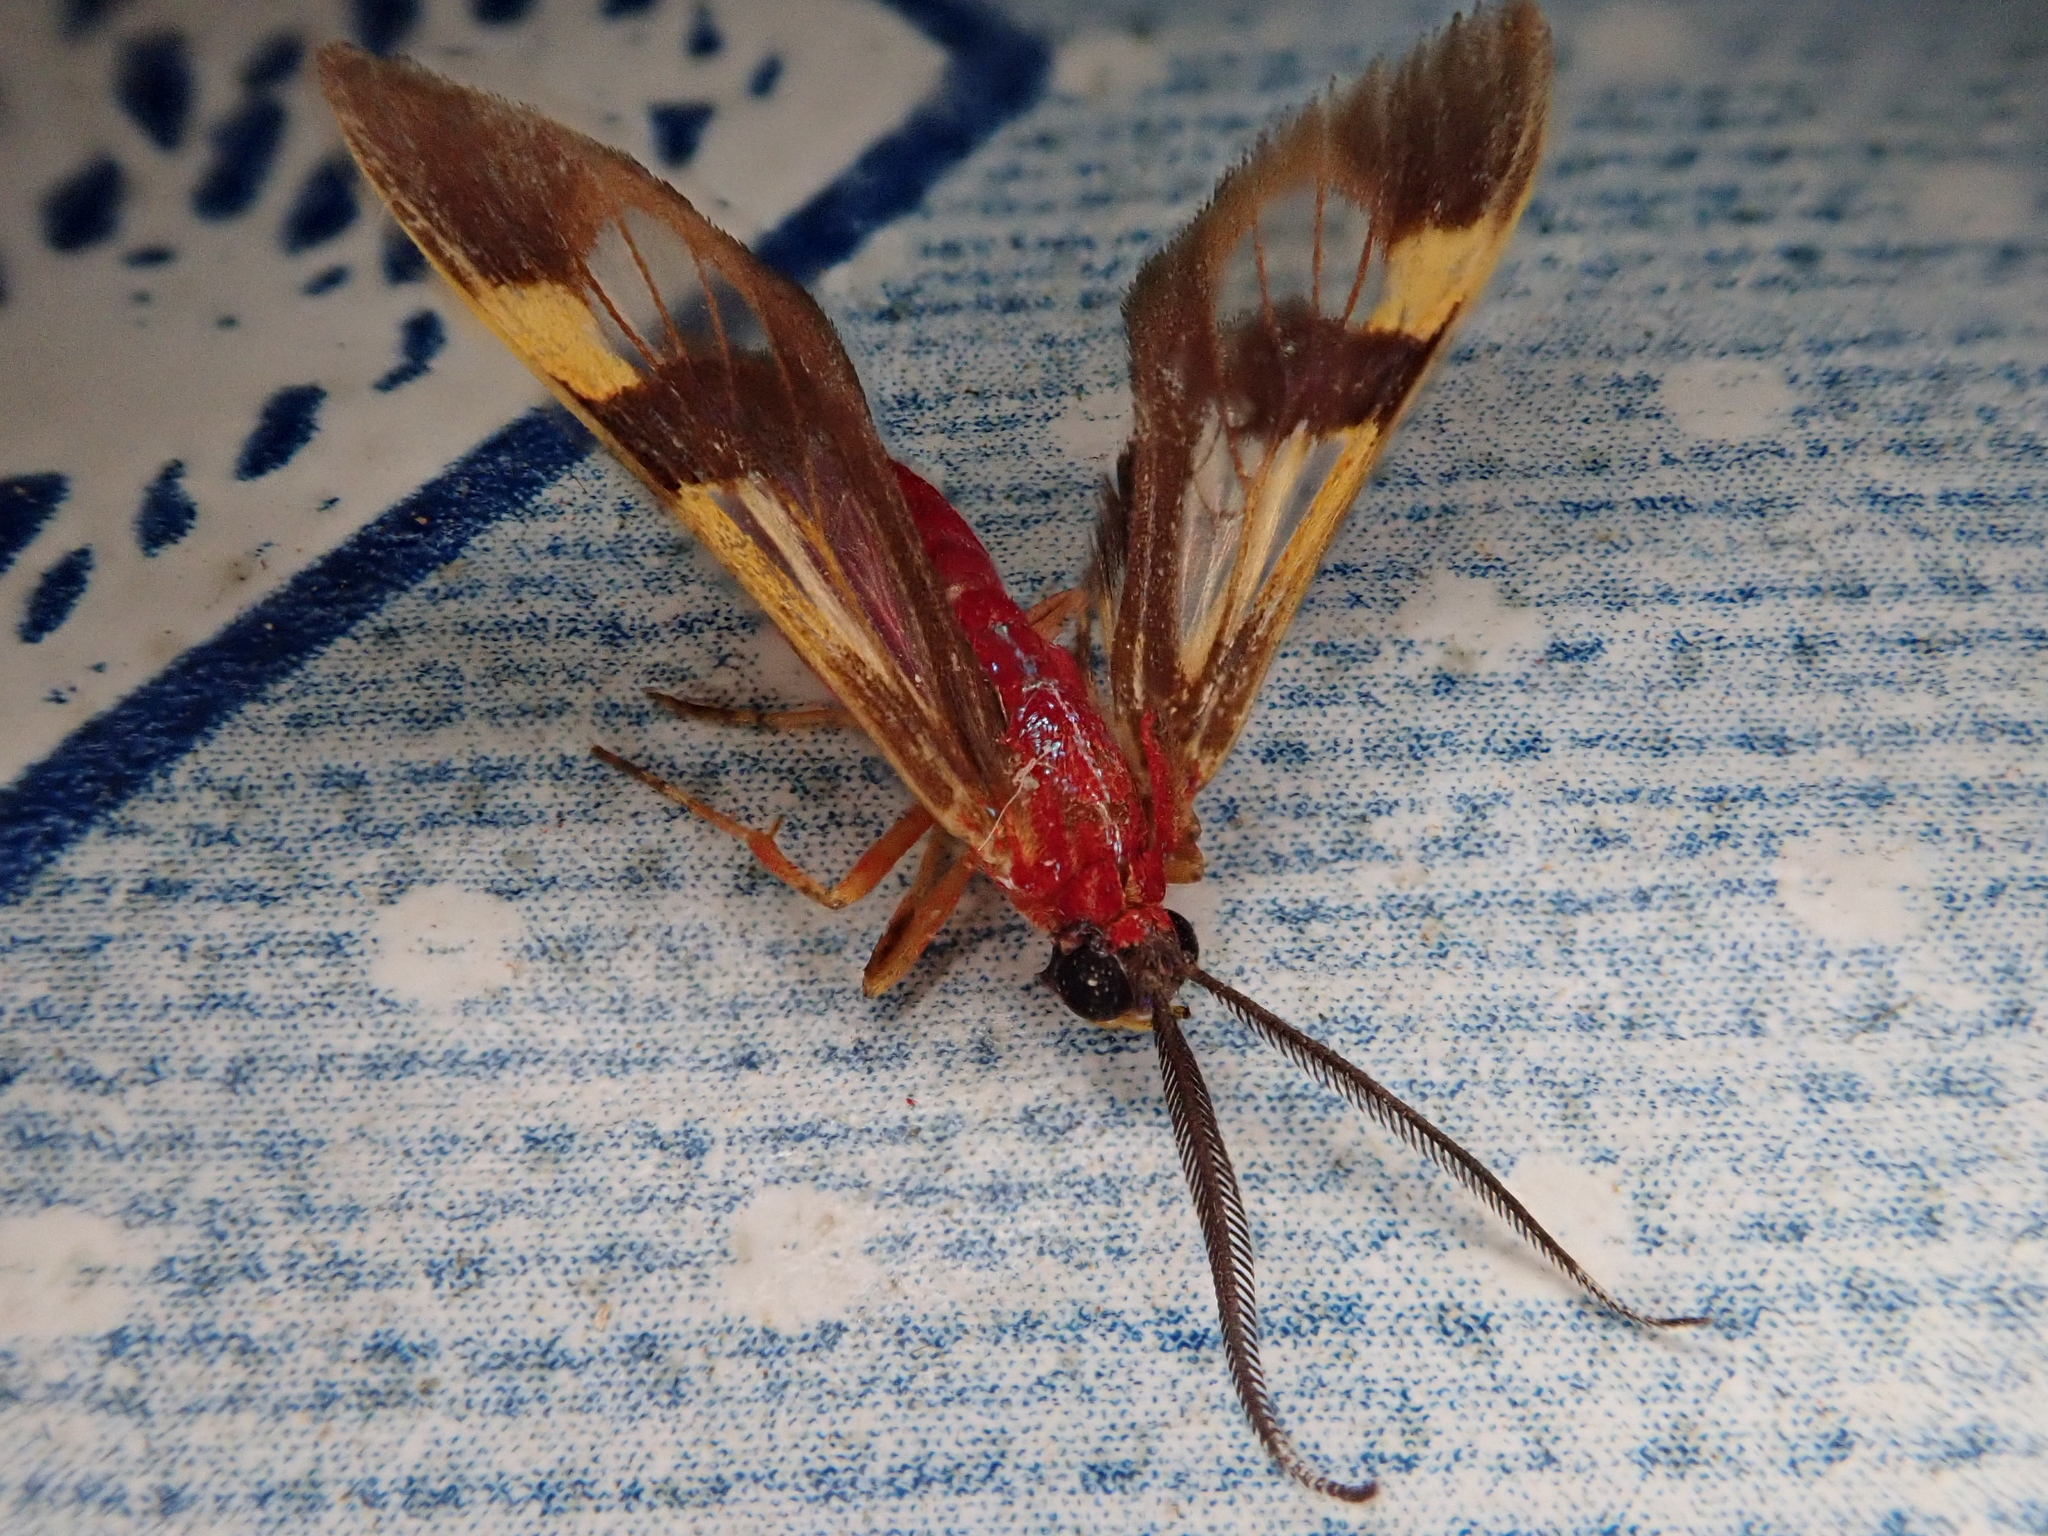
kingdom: Animalia
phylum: Arthropoda
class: Insecta
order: Lepidoptera
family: Erebidae
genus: Cercocladia
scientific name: Cercocladia novicia
